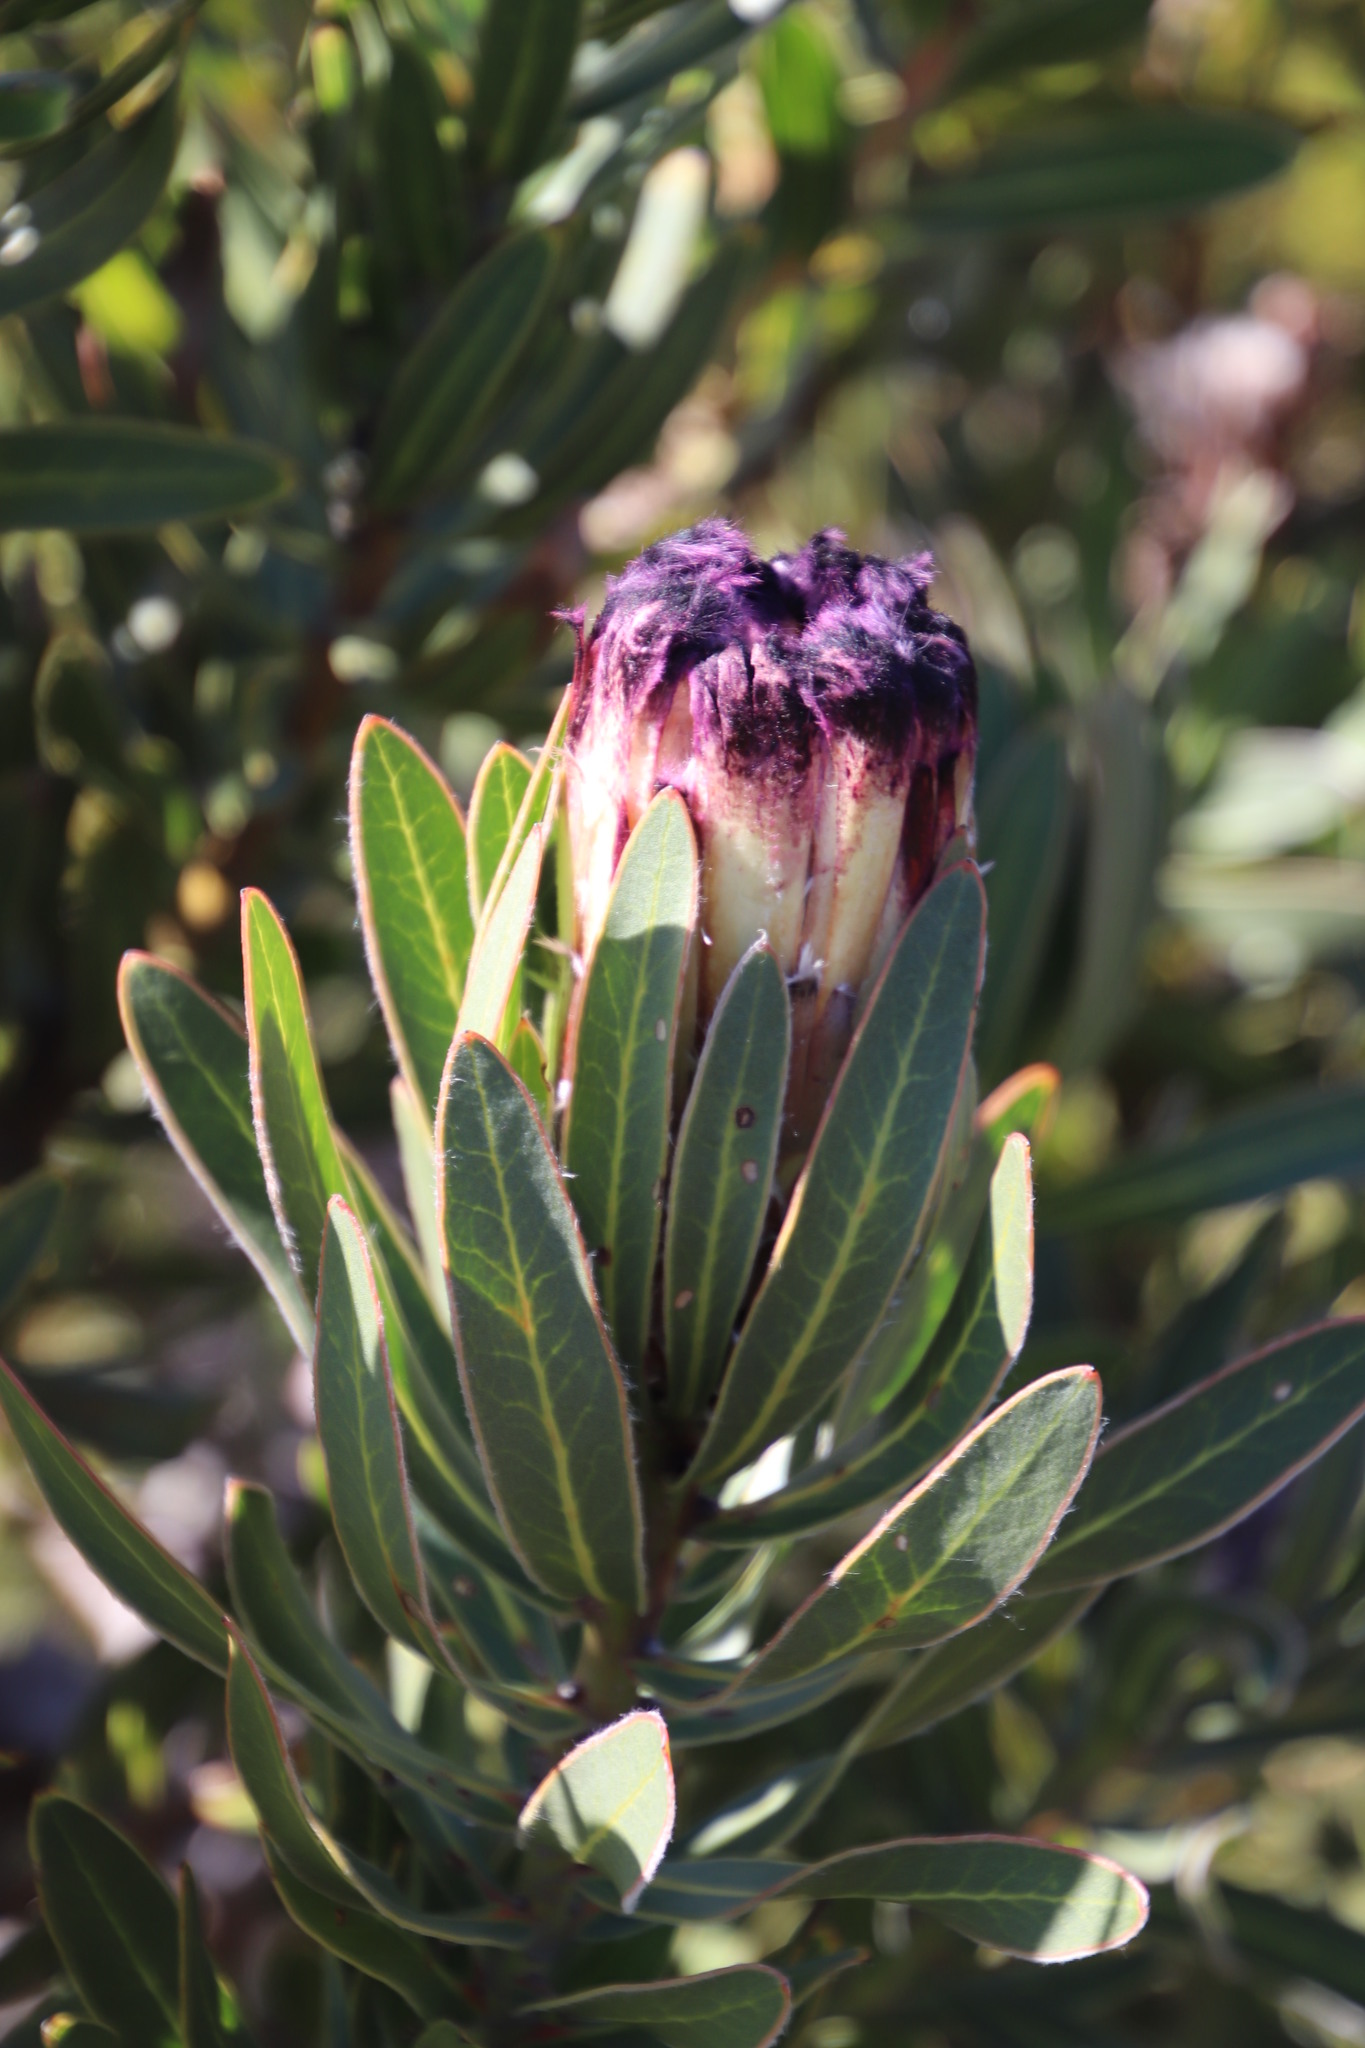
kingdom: Plantae
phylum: Tracheophyta
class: Magnoliopsida
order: Proteales
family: Proteaceae
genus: Protea
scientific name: Protea lepidocarpodendron
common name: Black-bearded protea
